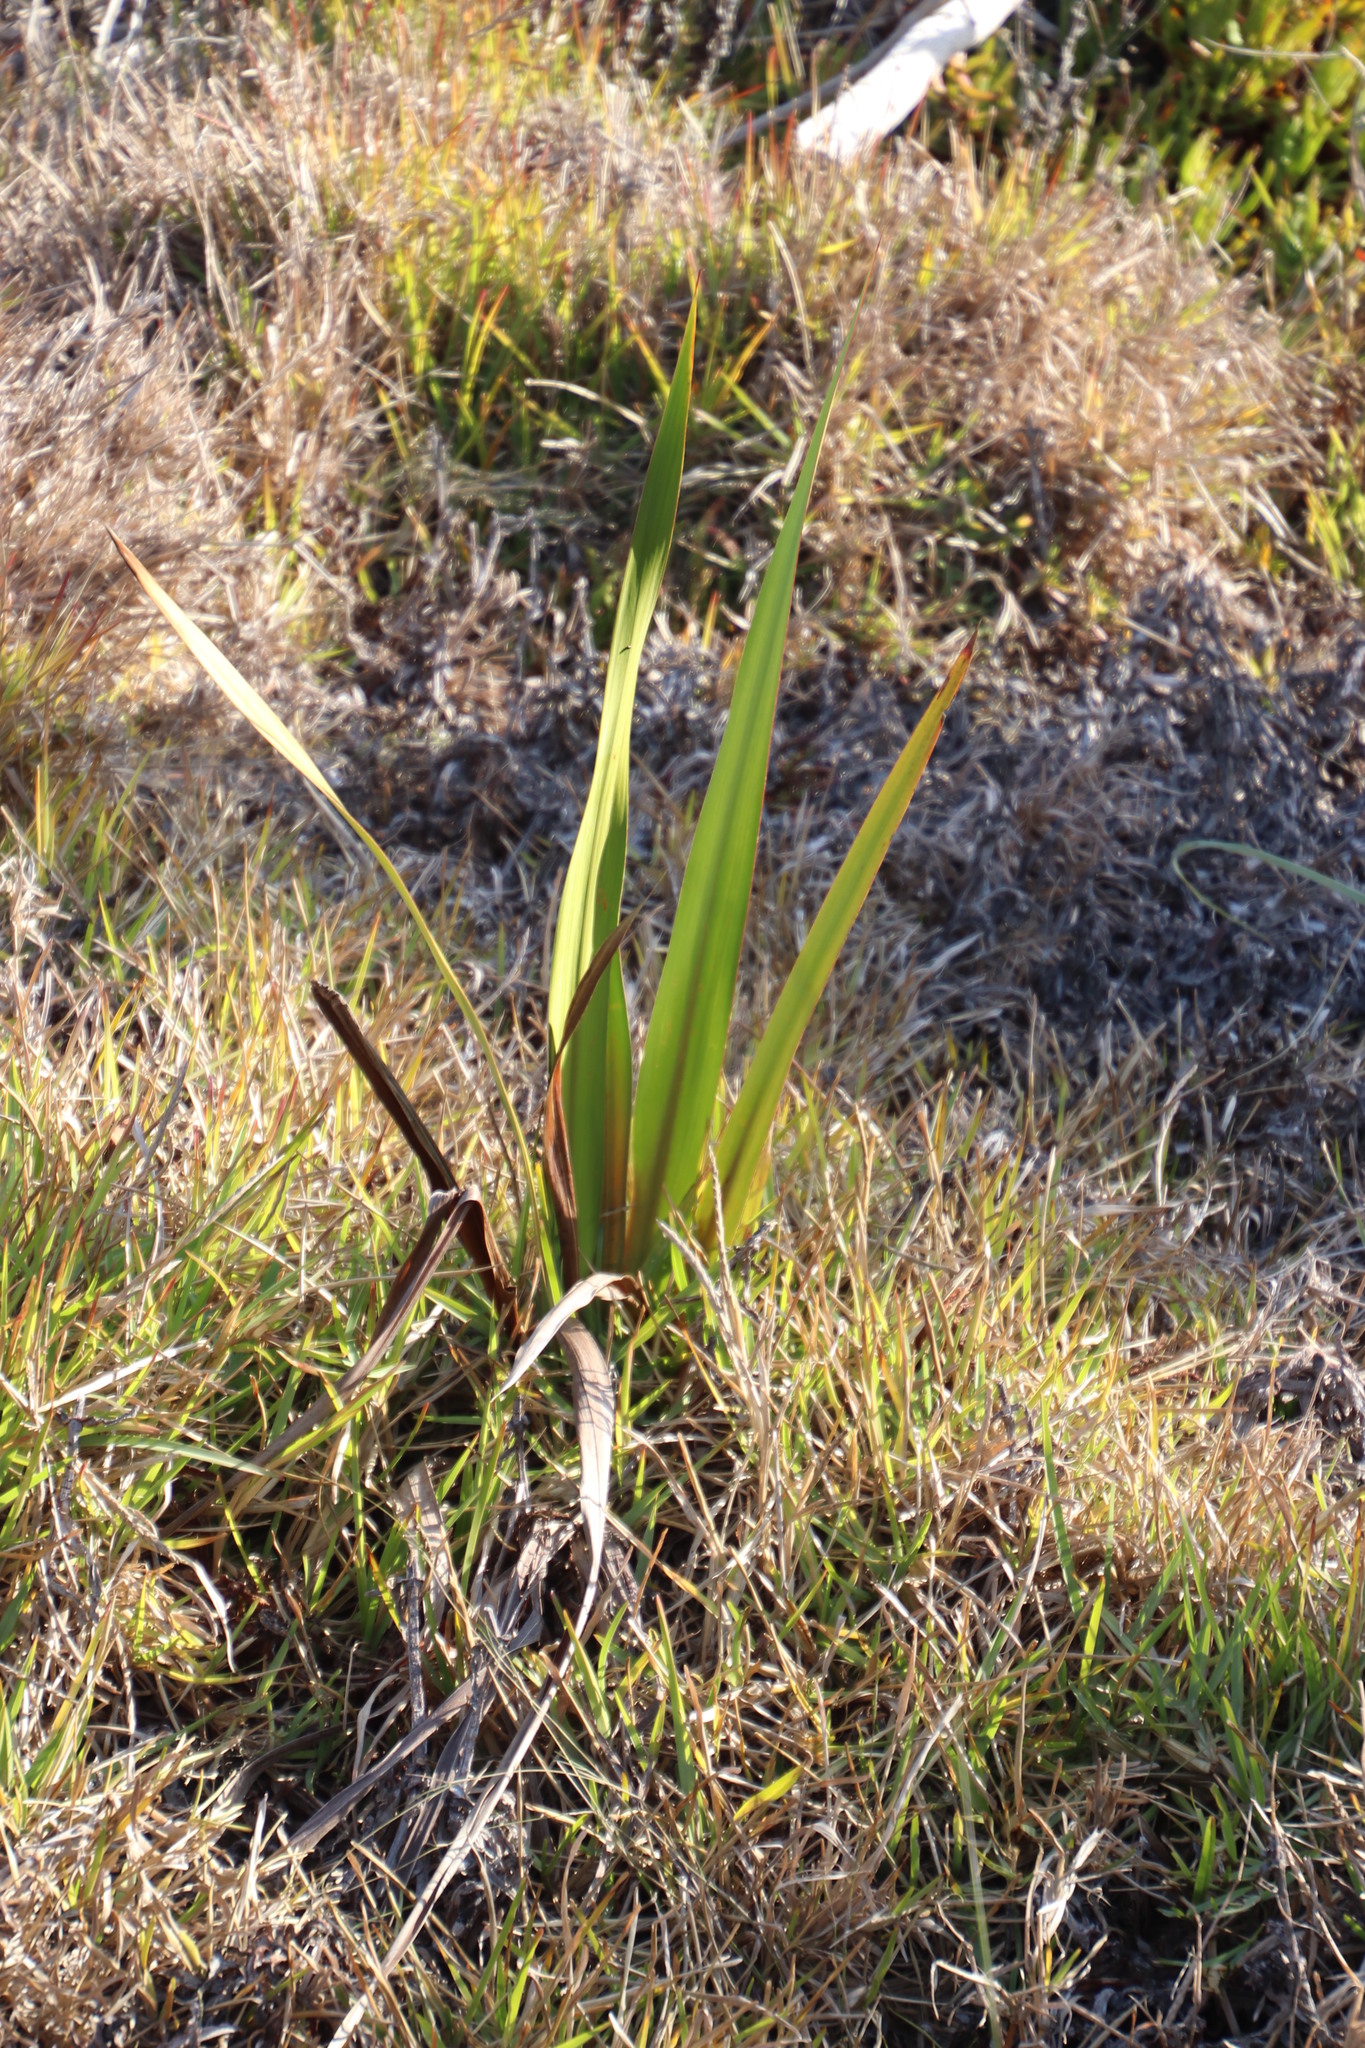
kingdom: Plantae
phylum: Tracheophyta
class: Liliopsida
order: Asparagales
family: Iridaceae
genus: Watsonia
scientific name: Watsonia meriana
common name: Bulbil bugle-lily
